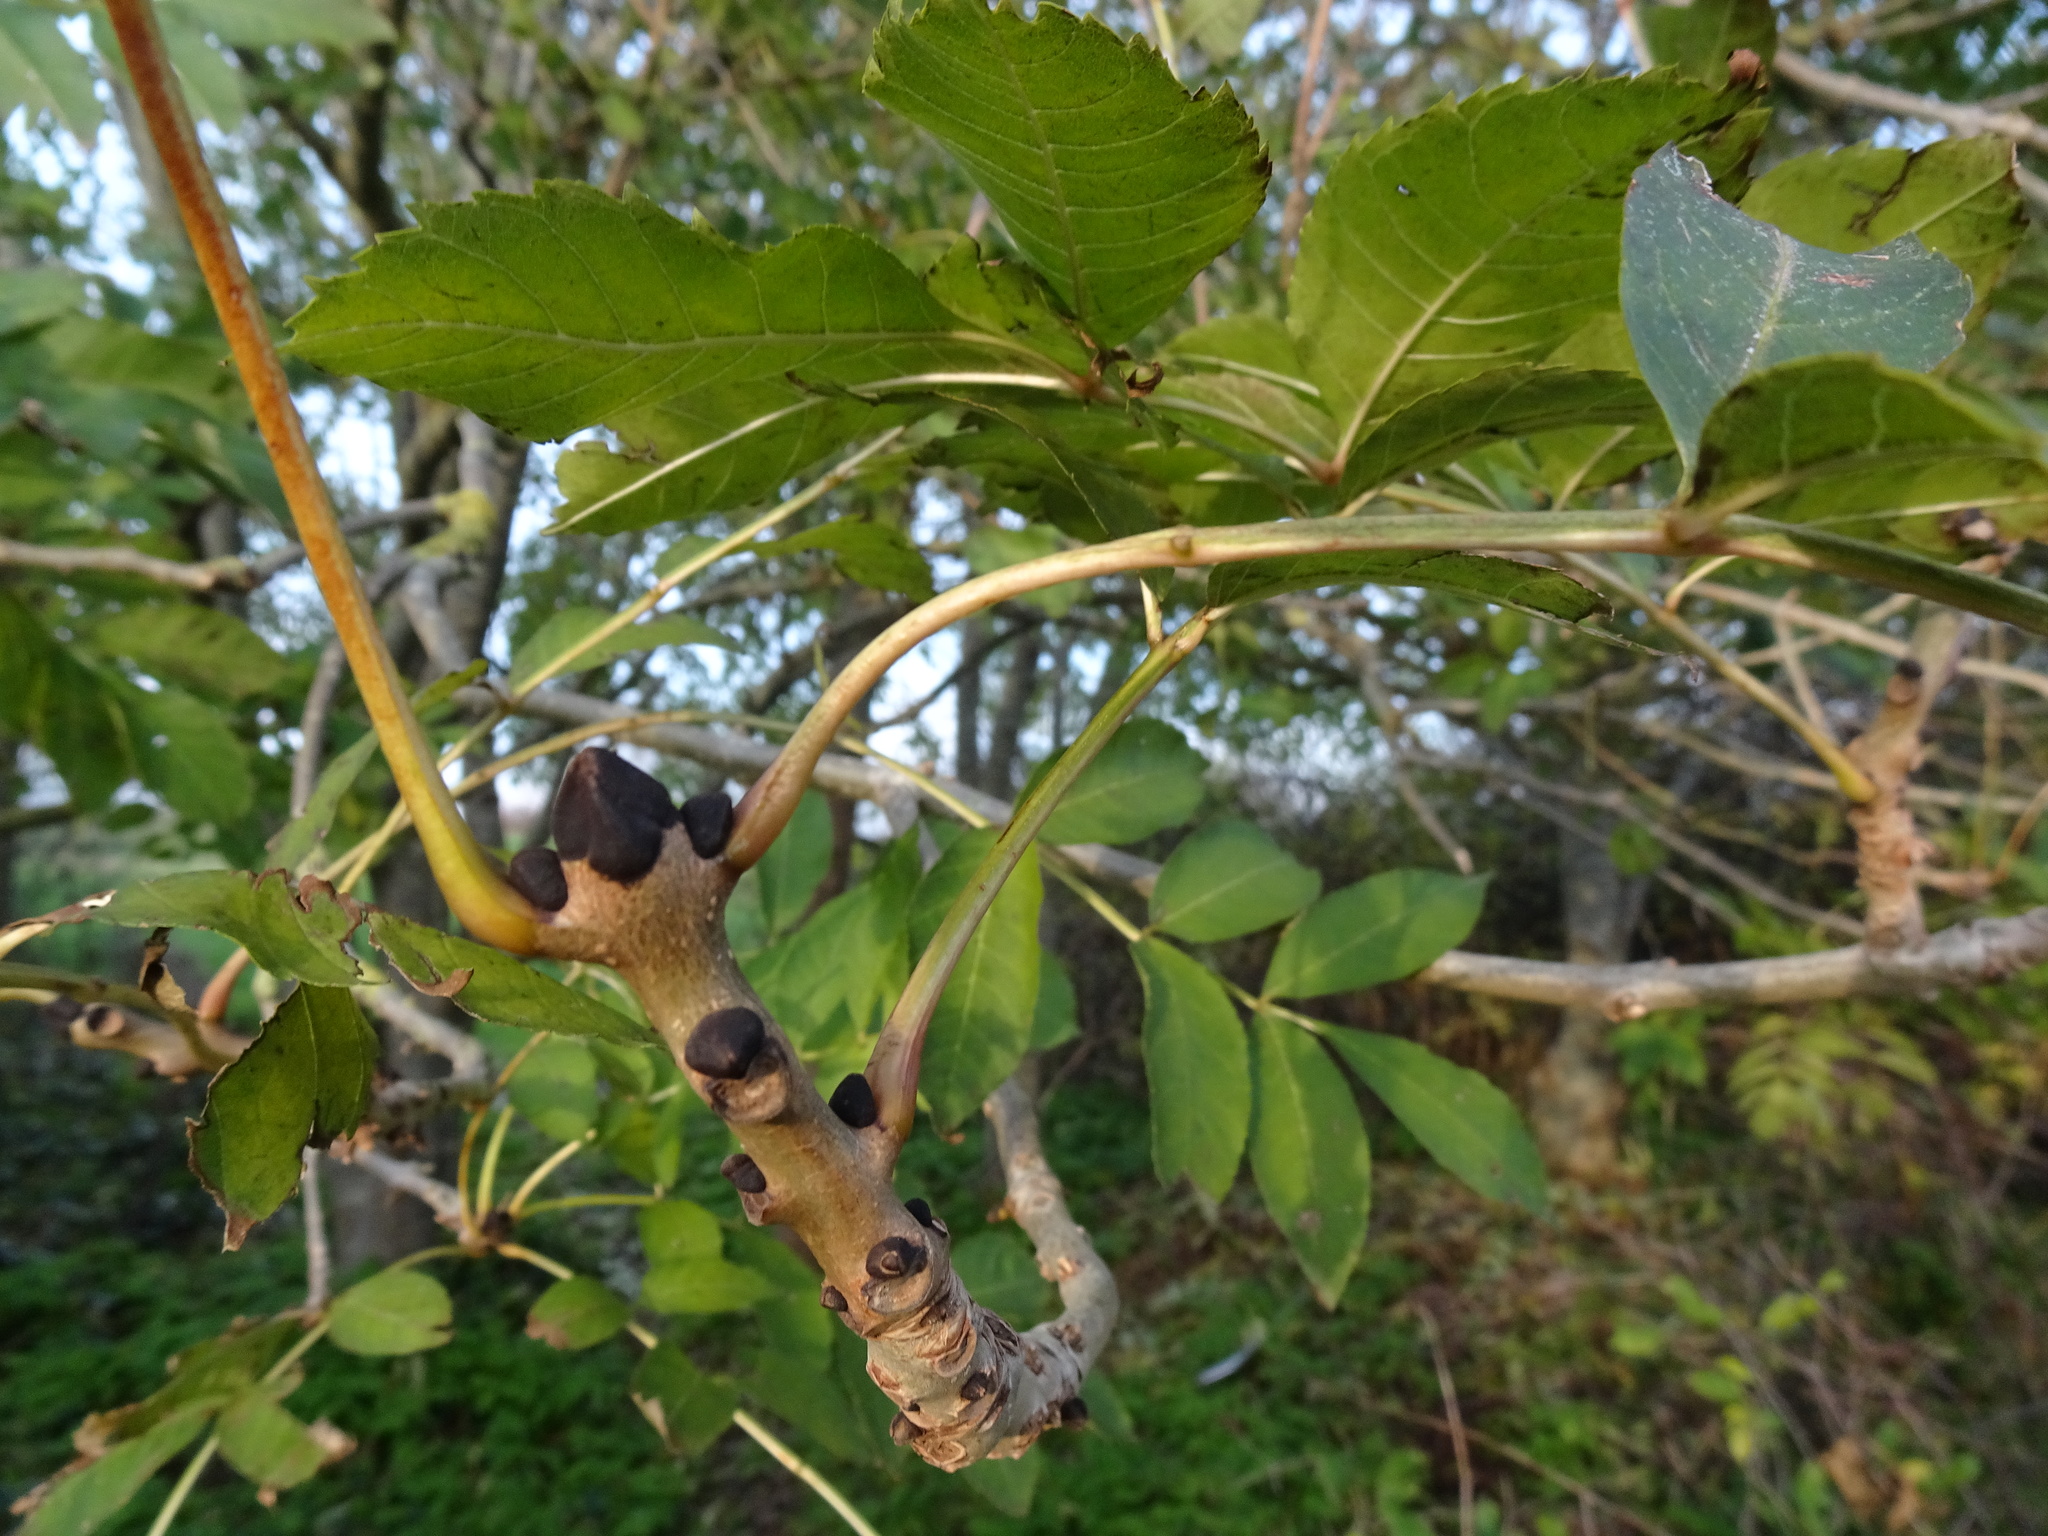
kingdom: Plantae
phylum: Tracheophyta
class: Magnoliopsida
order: Lamiales
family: Oleaceae
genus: Fraxinus
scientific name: Fraxinus excelsior
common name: European ash
